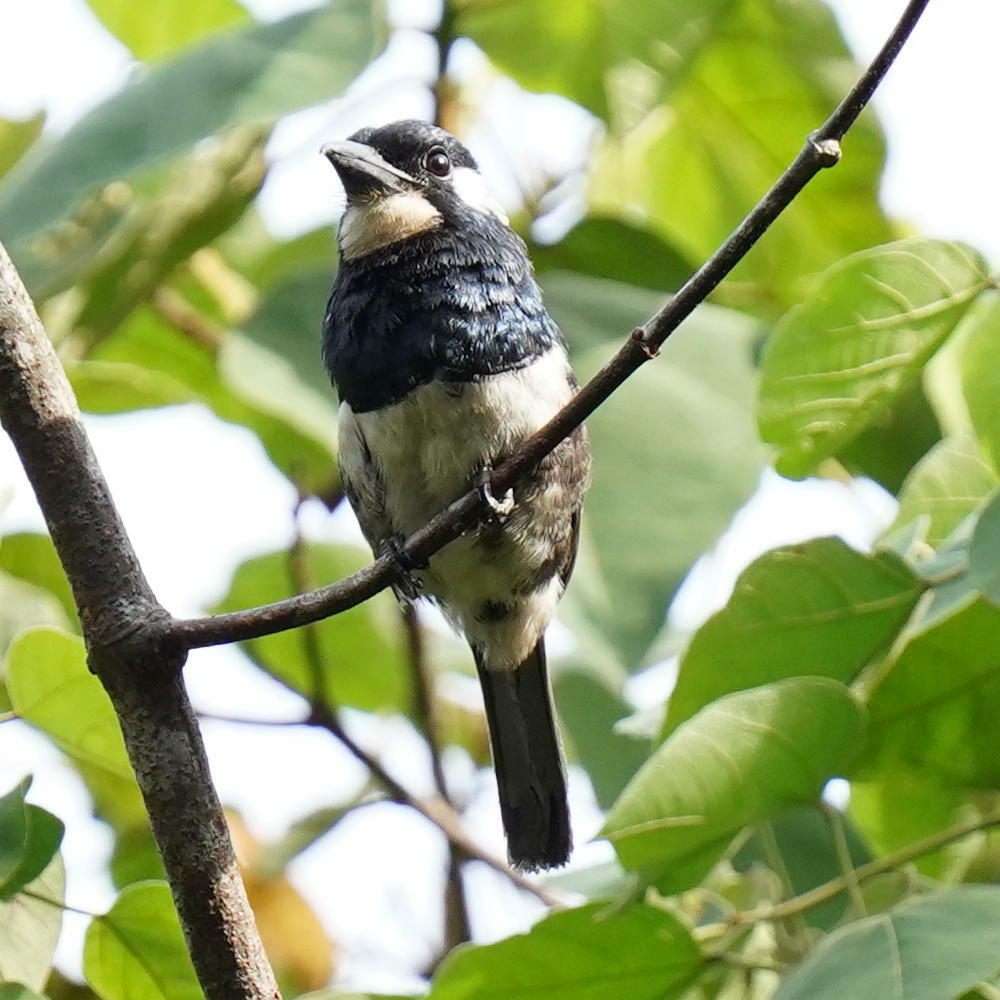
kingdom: Animalia
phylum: Chordata
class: Aves
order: Piciformes
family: Bucconidae
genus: Notharchus
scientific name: Notharchus pectoralis
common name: Black-breasted puffbird
